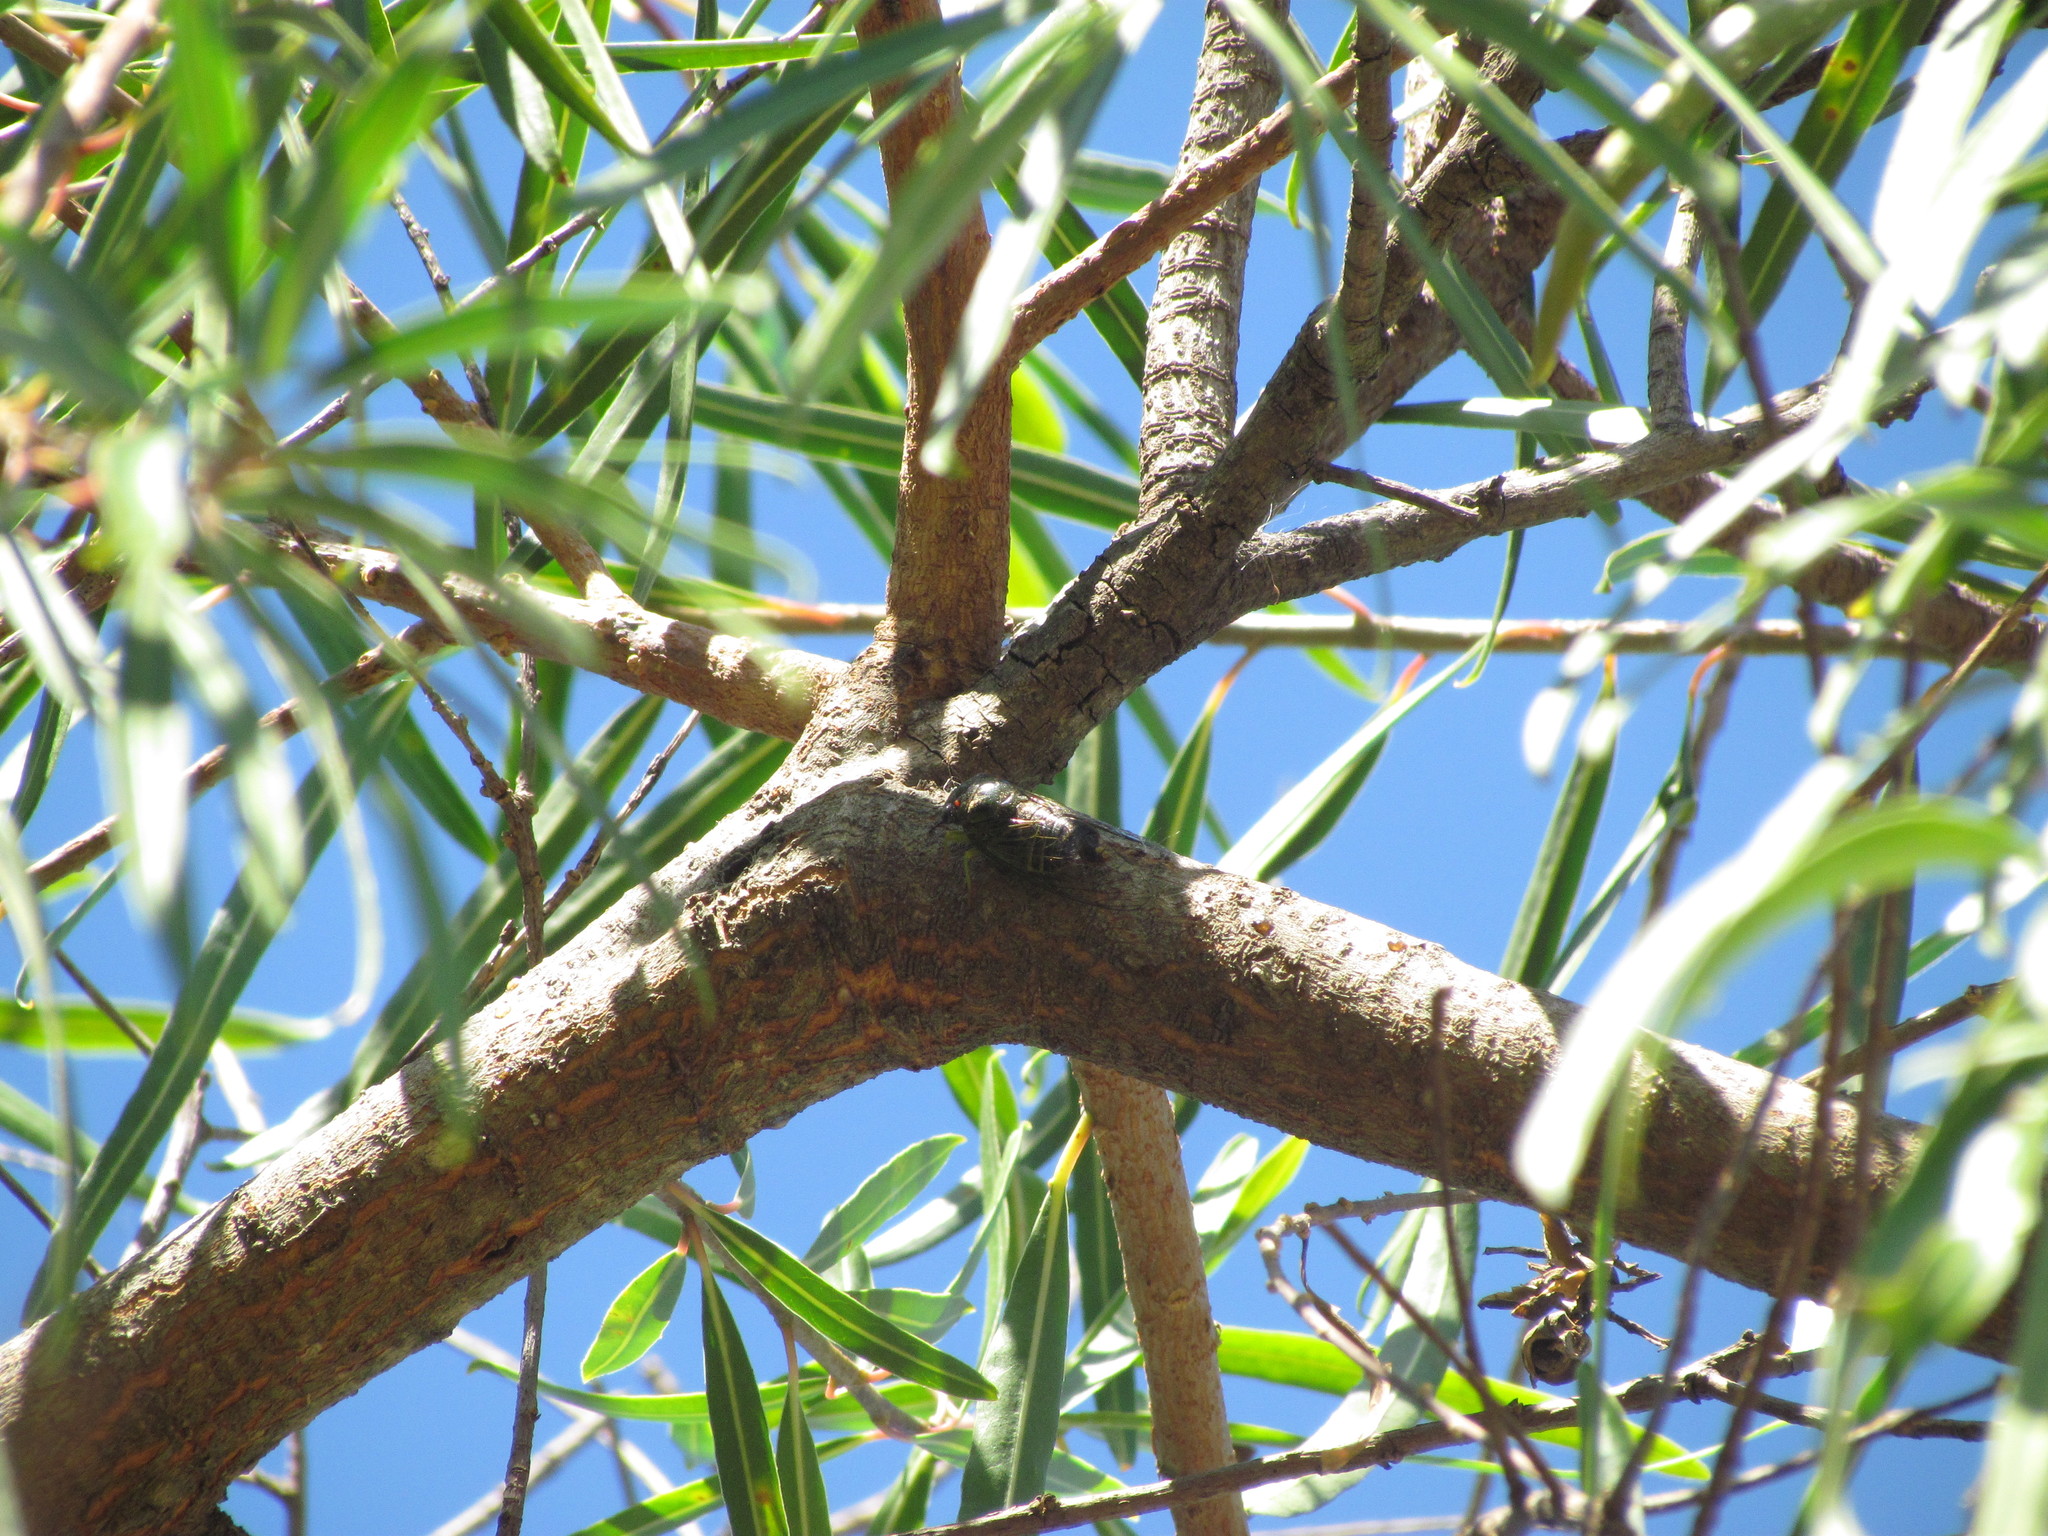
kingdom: Animalia
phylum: Arthropoda
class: Insecta
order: Hemiptera
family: Cicadidae
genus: Acanthoventris
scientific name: Acanthoventris drewseni
